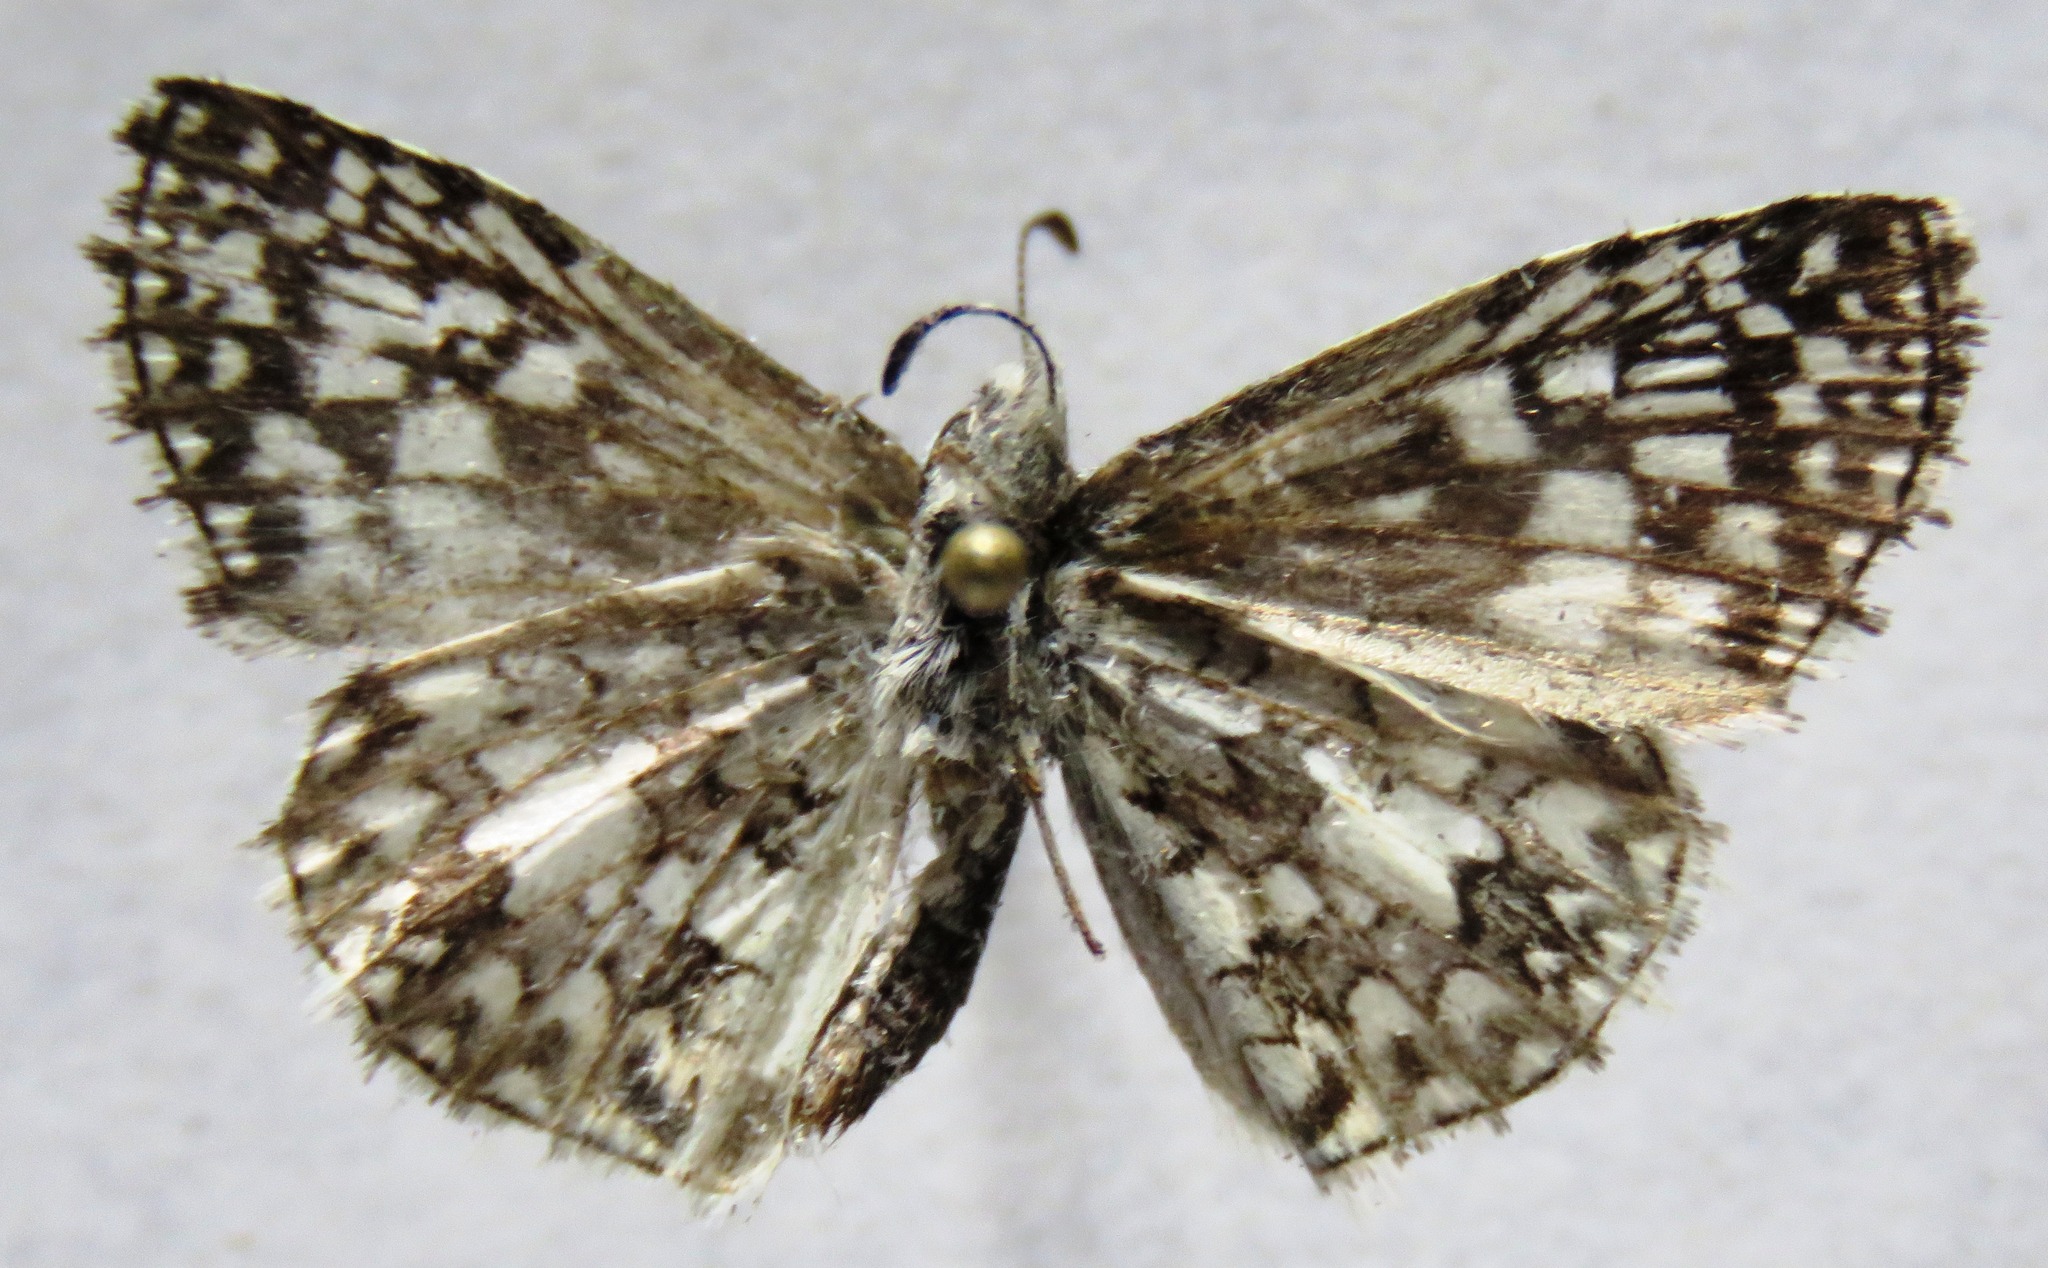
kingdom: Animalia
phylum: Arthropoda
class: Insecta
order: Lepidoptera
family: Hesperiidae
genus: Pyrgus
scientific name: Pyrgus oileus
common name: Tropical checkered-skipper
